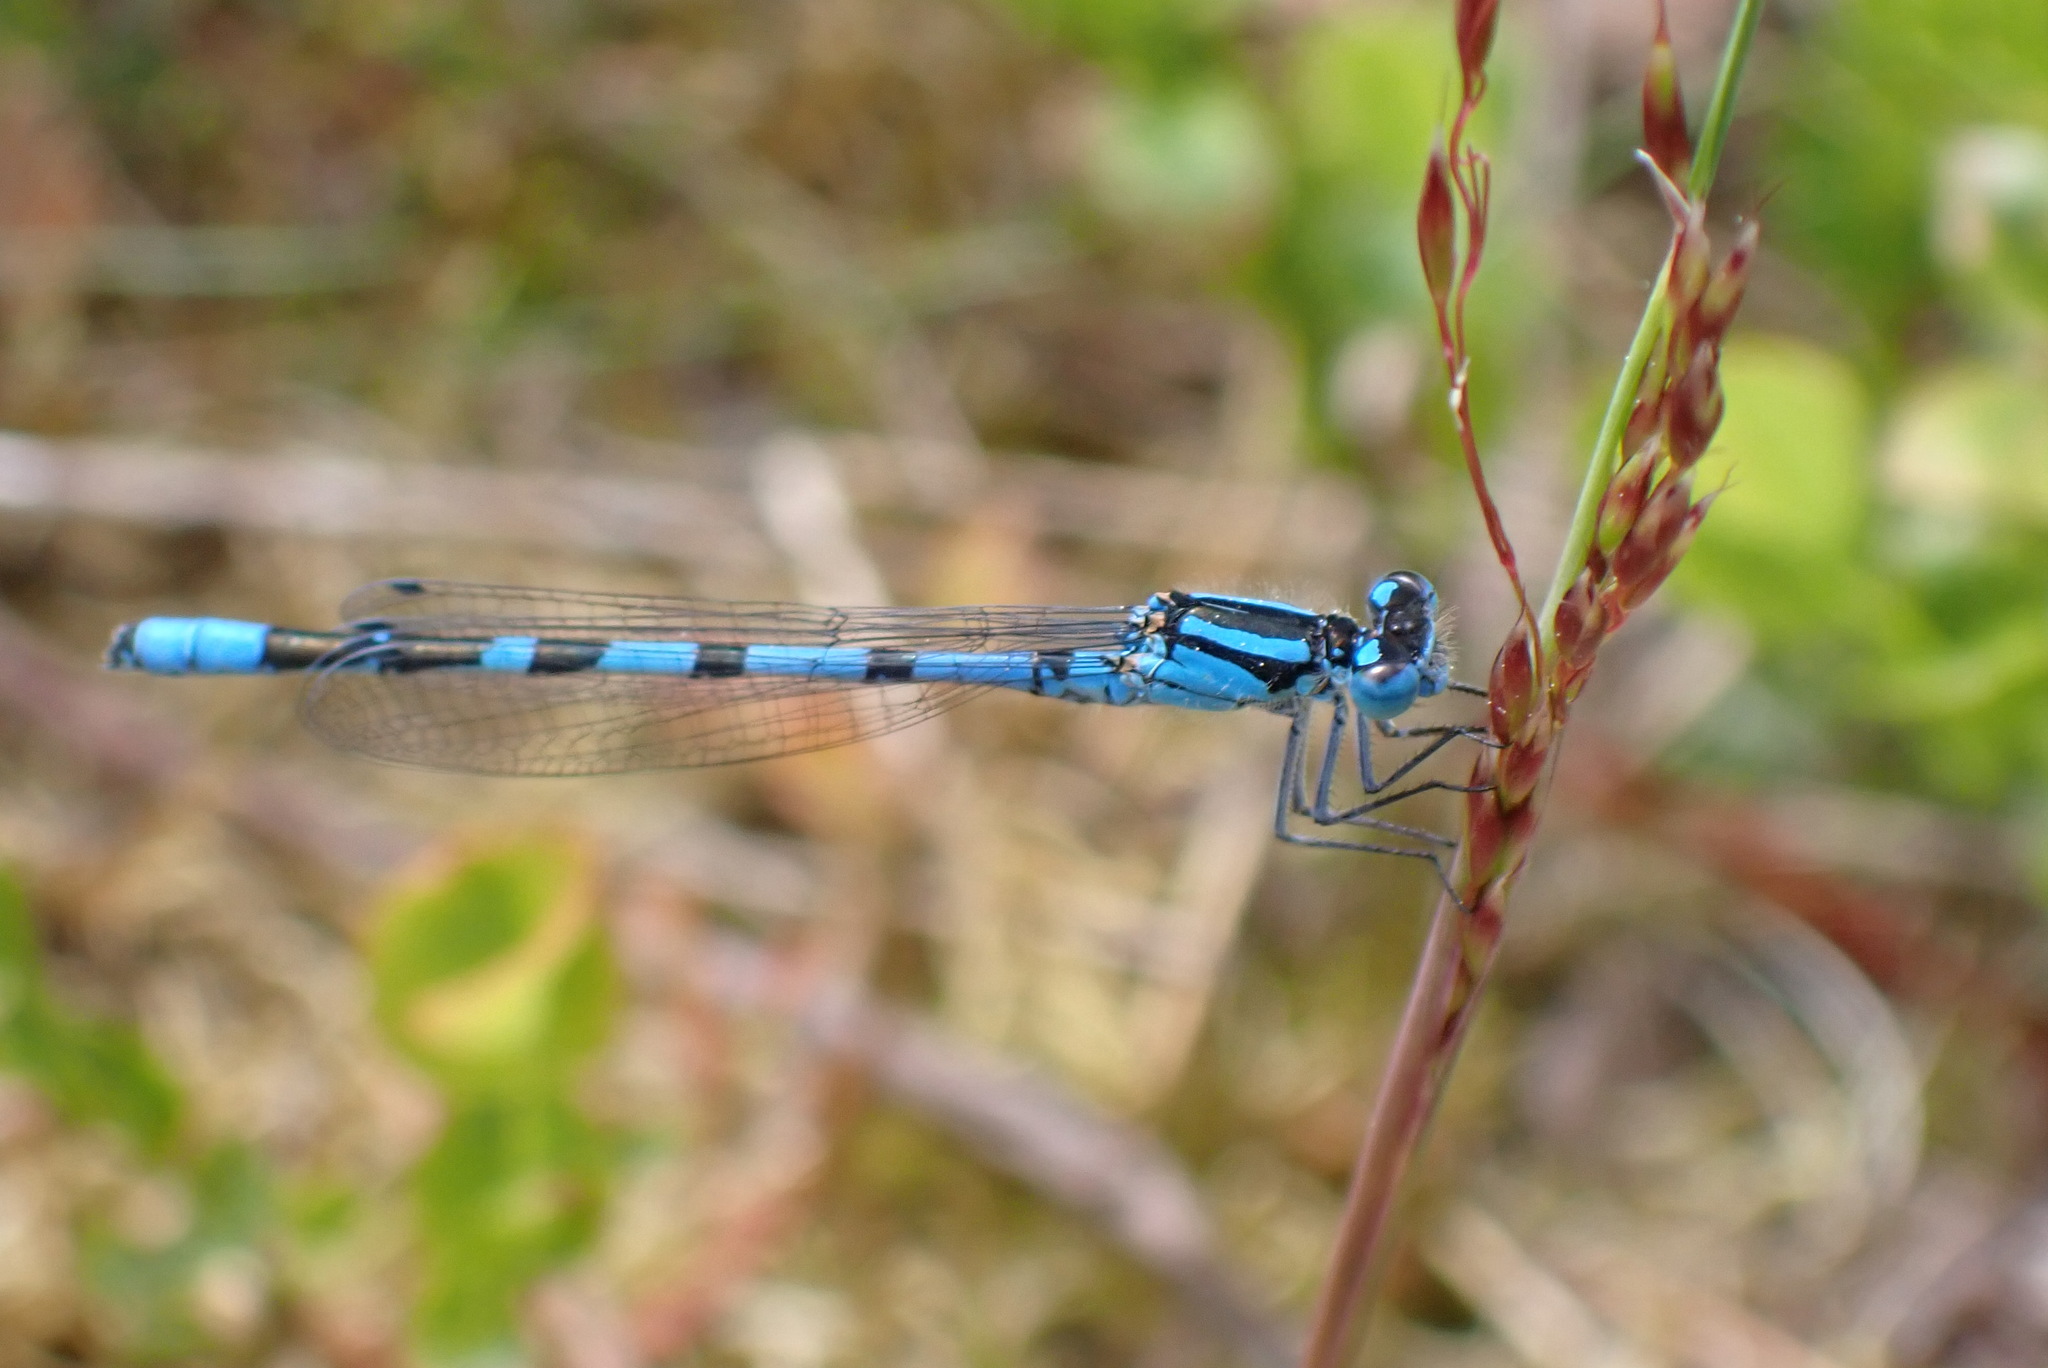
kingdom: Animalia
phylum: Arthropoda
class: Insecta
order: Odonata
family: Coenagrionidae
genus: Enallagma
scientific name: Enallagma cyathigerum
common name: Common blue damselfly
